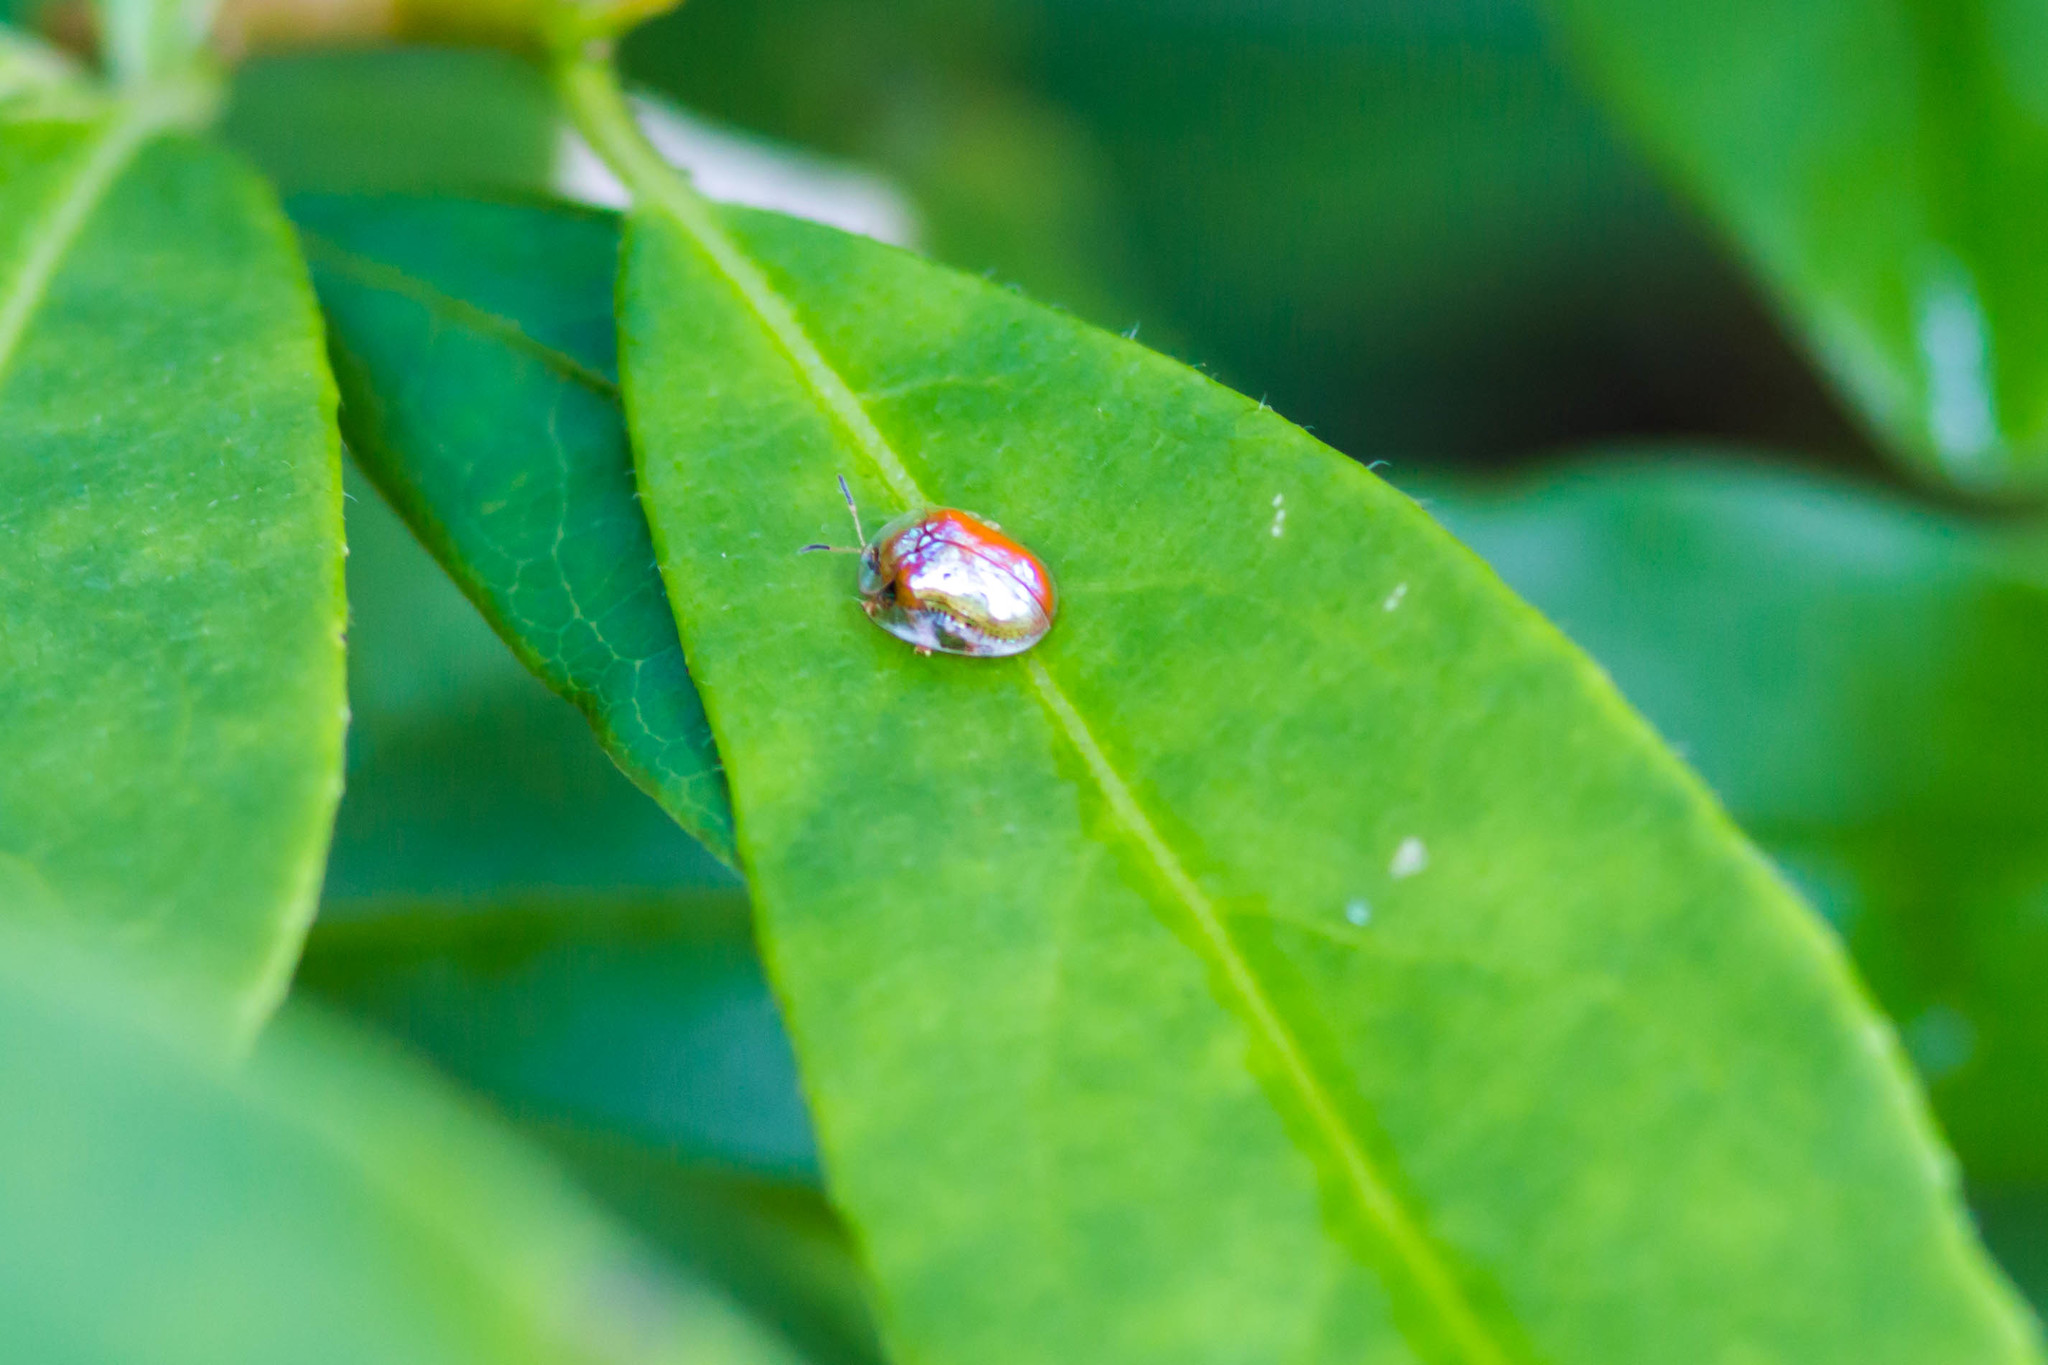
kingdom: Animalia
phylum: Arthropoda
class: Insecta
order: Coleoptera
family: Chrysomelidae
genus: Charidotella
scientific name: Charidotella sexpunctata
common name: Golden tortoise beetle
